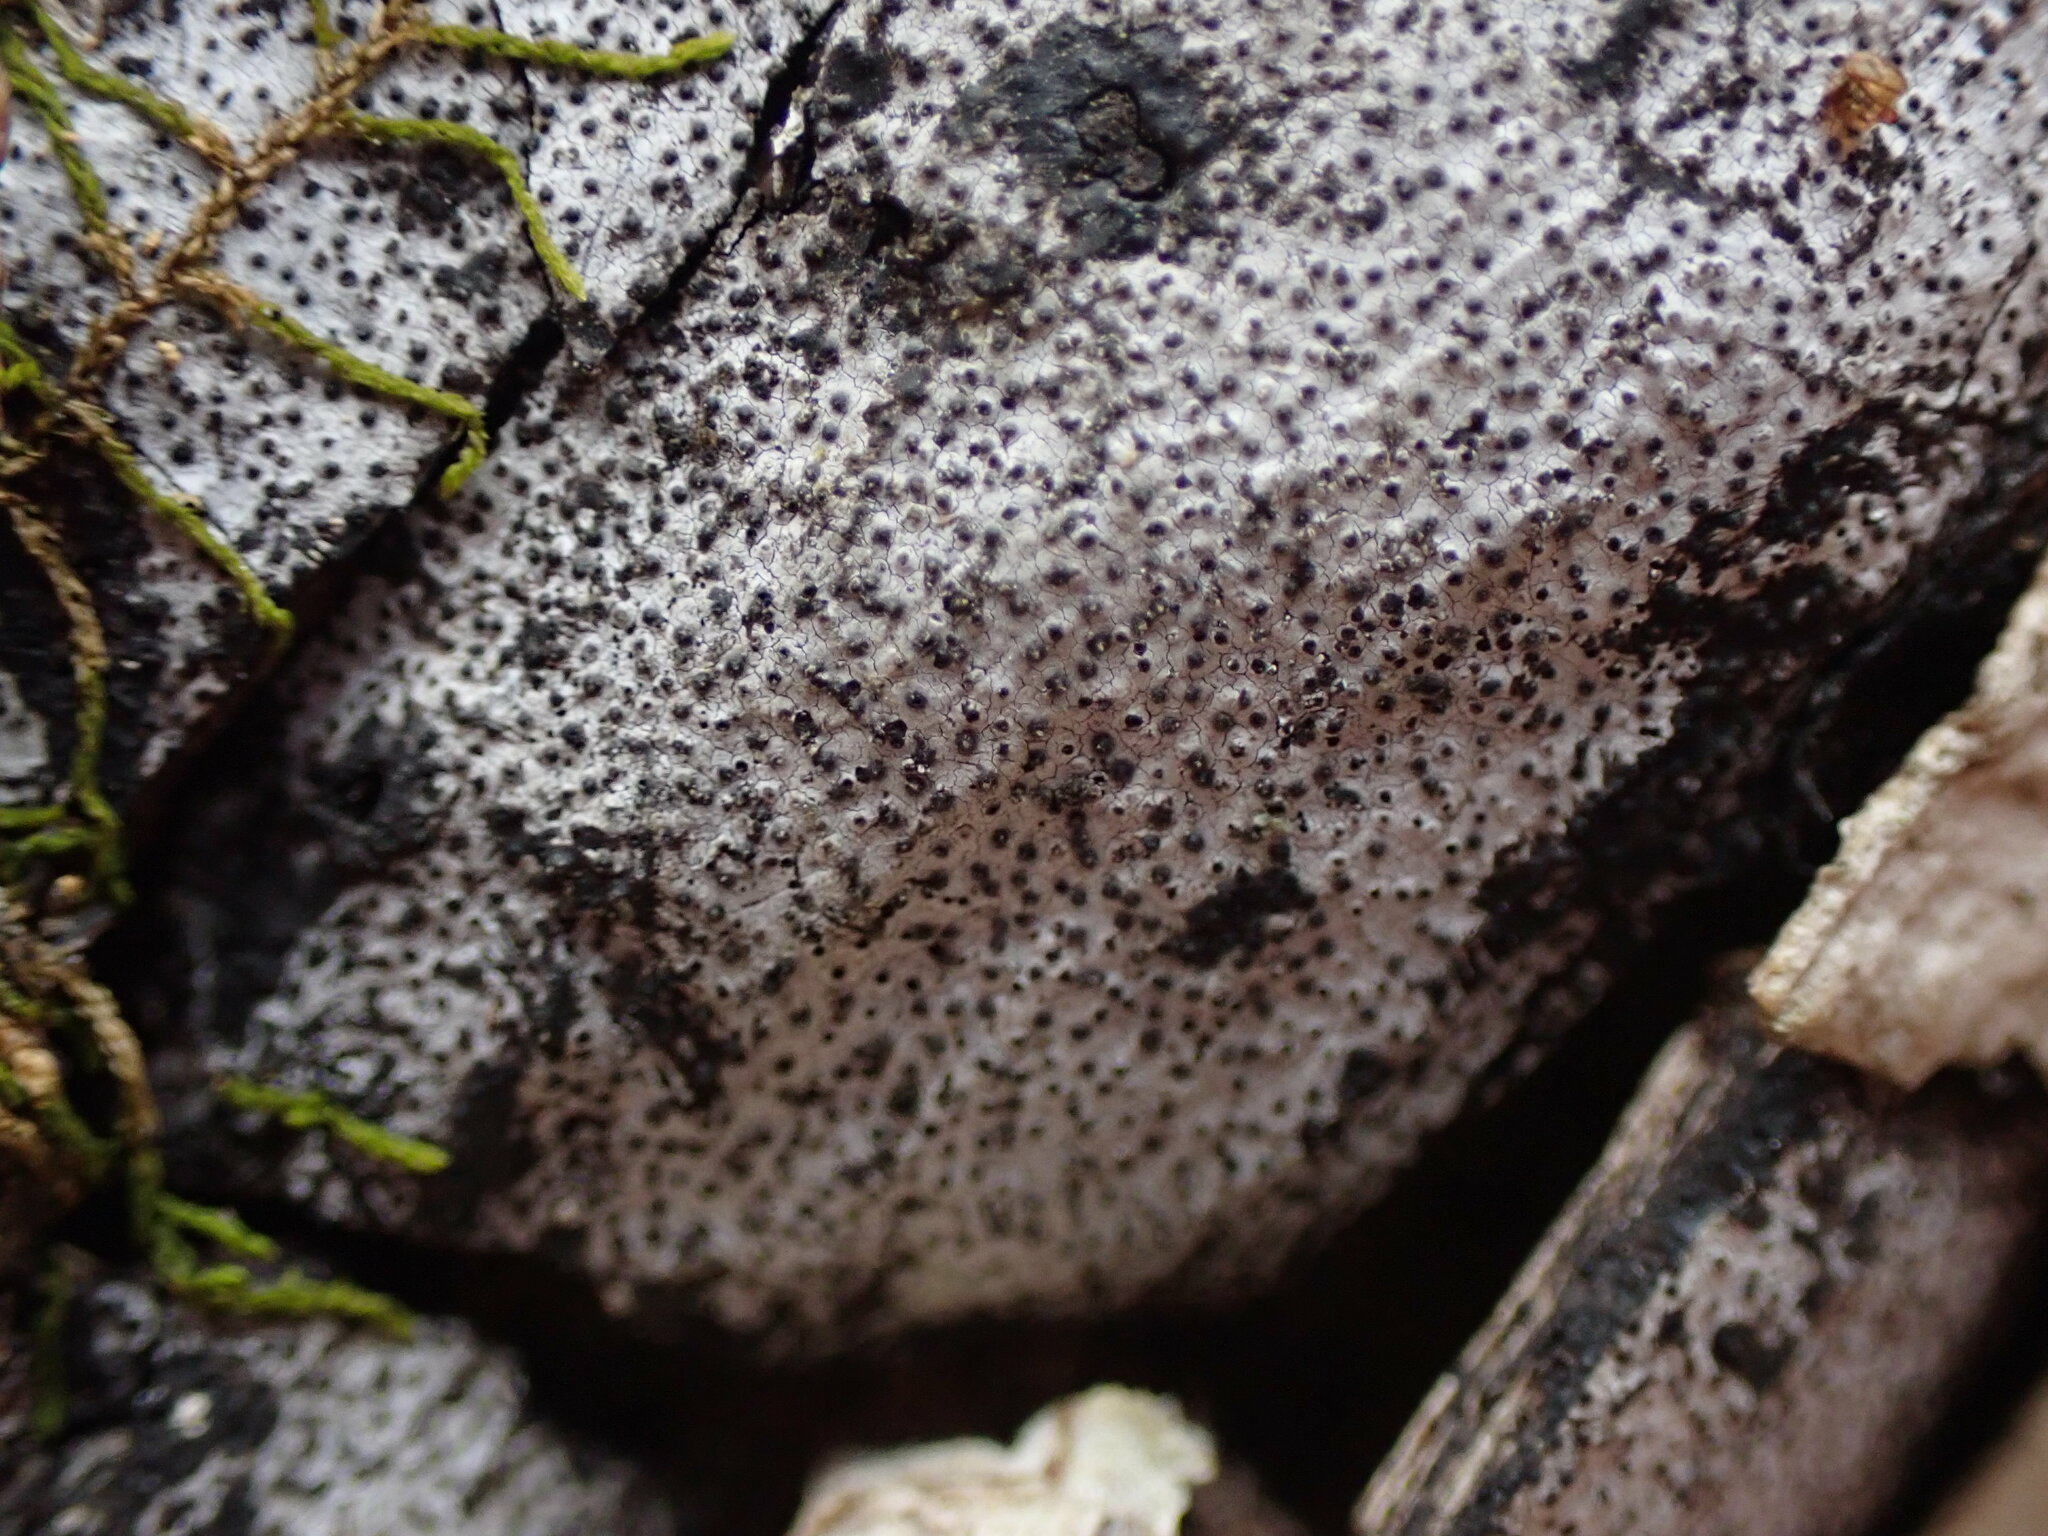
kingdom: Fungi
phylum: Ascomycota
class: Sordariomycetes
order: Xylariales
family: Xylariaceae
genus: Kretzschmaria
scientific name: Kretzschmaria deusta
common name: Brittle cinder
